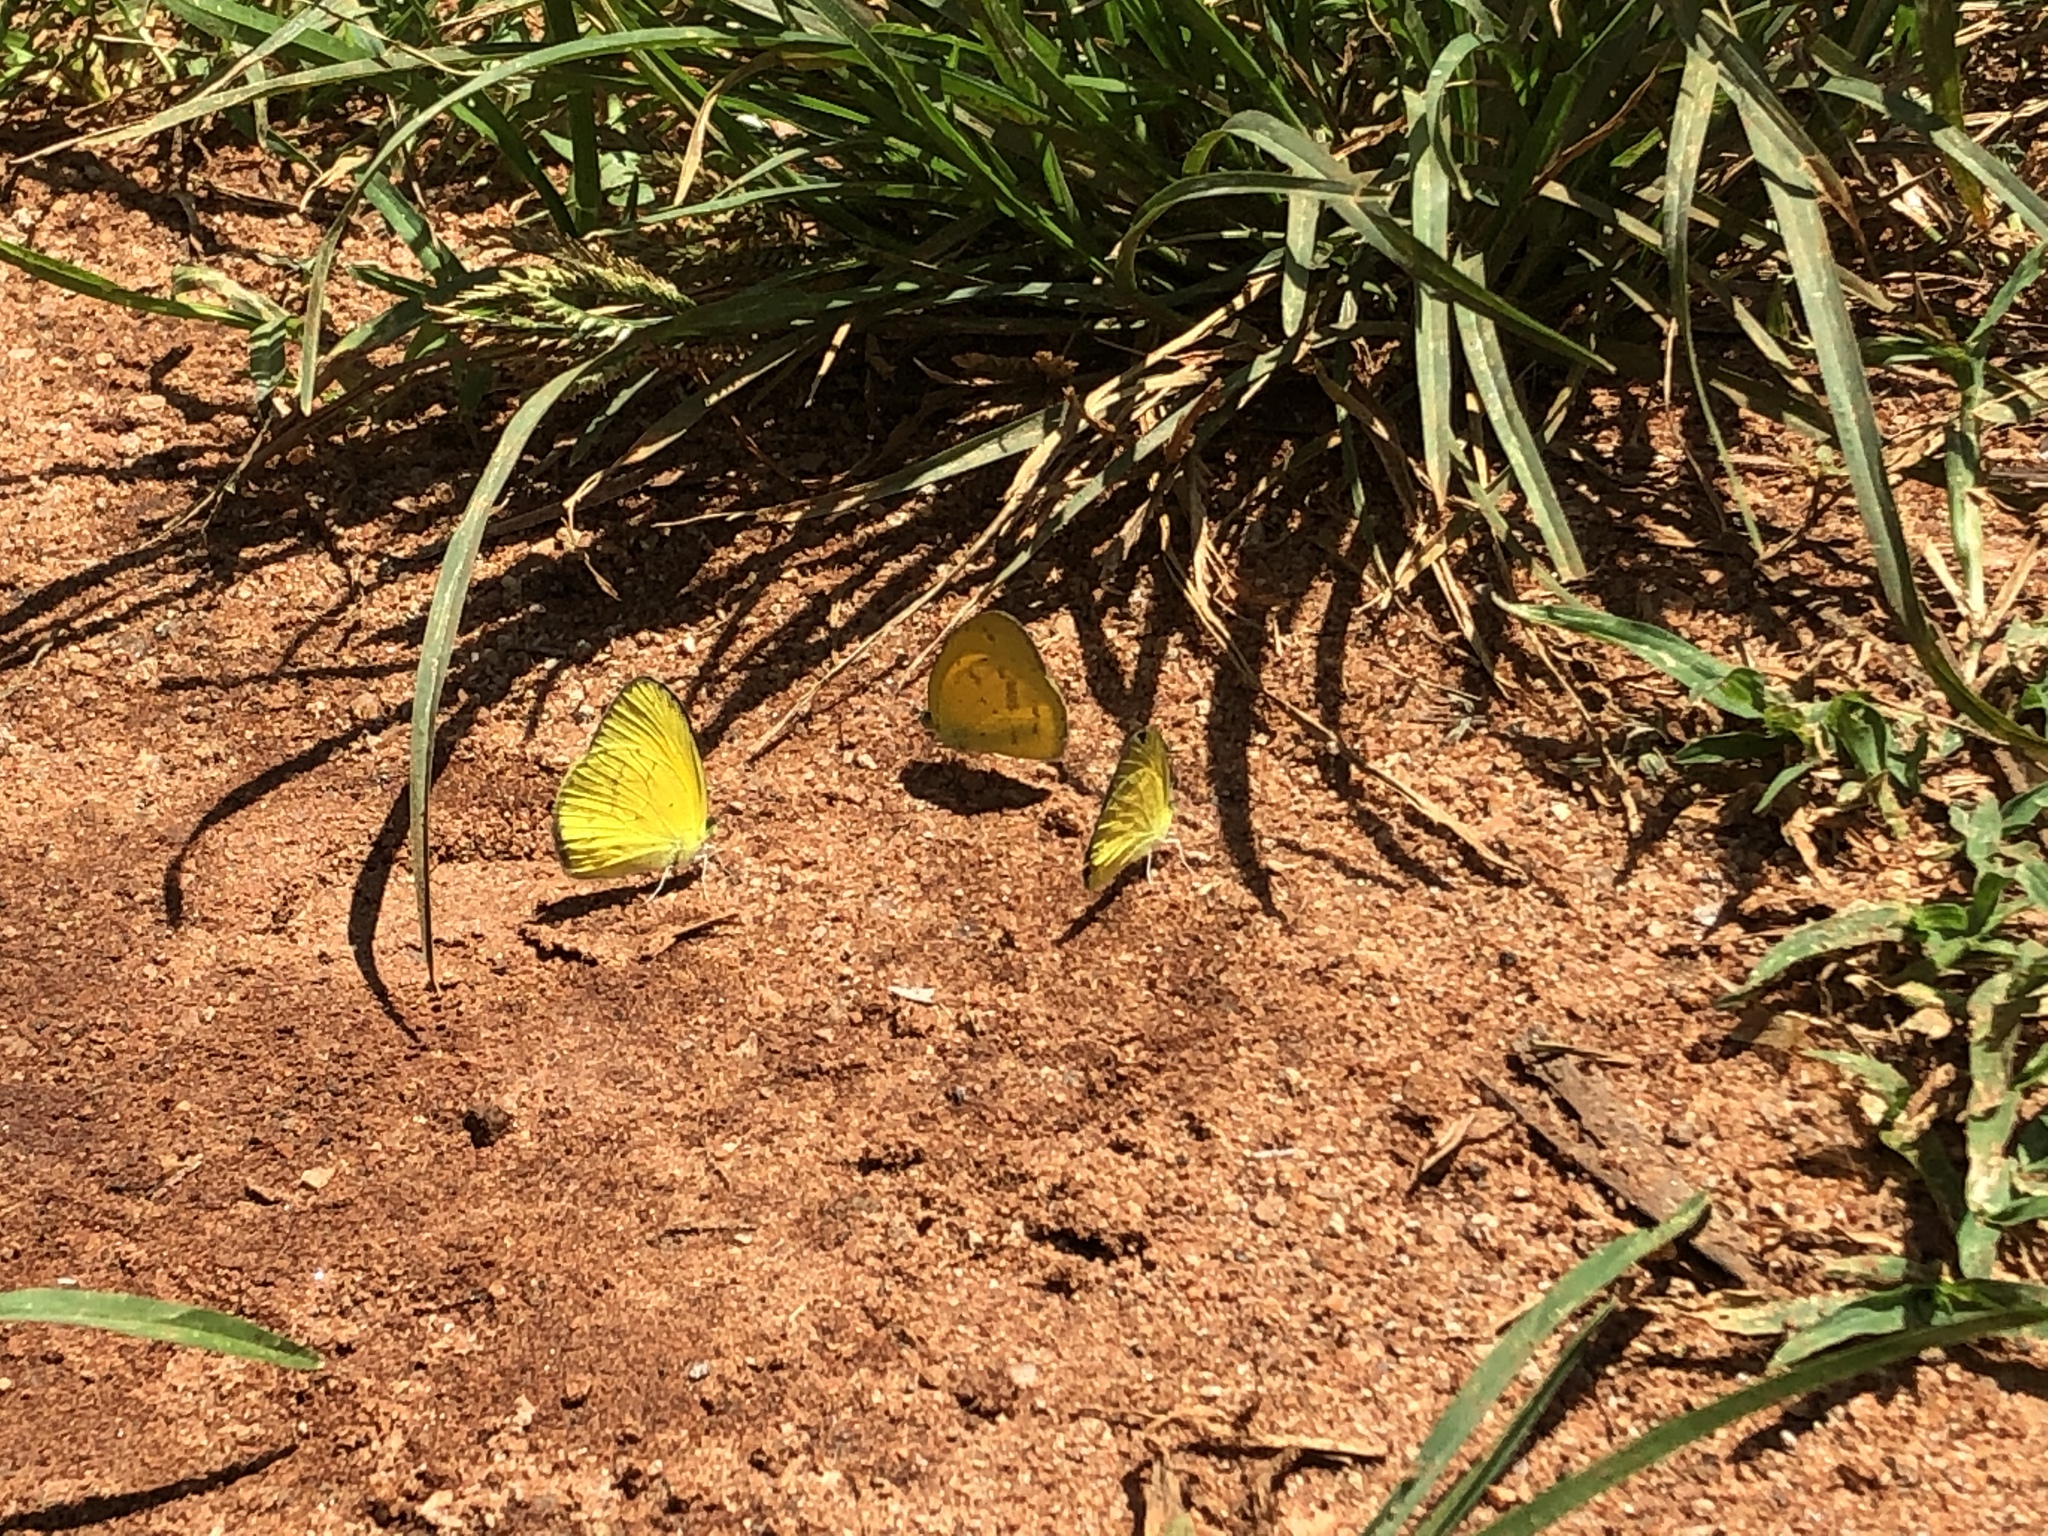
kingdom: Animalia
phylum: Arthropoda
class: Insecta
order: Lepidoptera
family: Pieridae
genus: Eurema
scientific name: Eurema brigitta
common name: Small grass yellow
